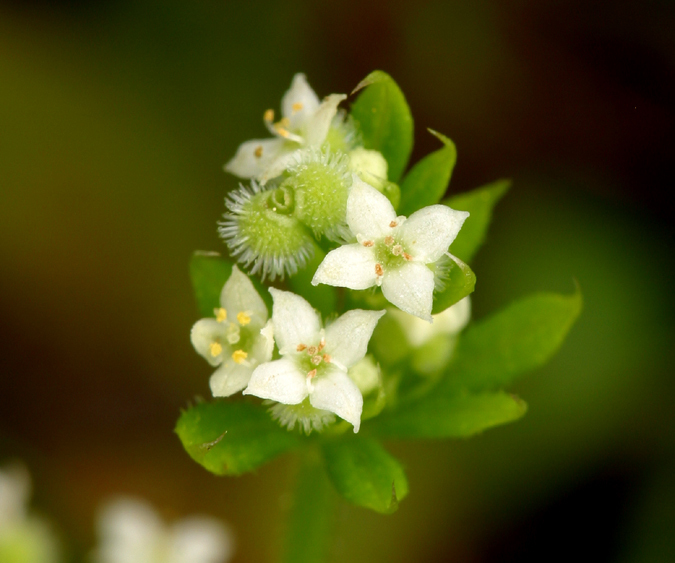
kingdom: Plantae
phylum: Tracheophyta
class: Magnoliopsida
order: Gentianales
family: Rubiaceae
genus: Galium
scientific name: Galium aparine
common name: Cleavers
